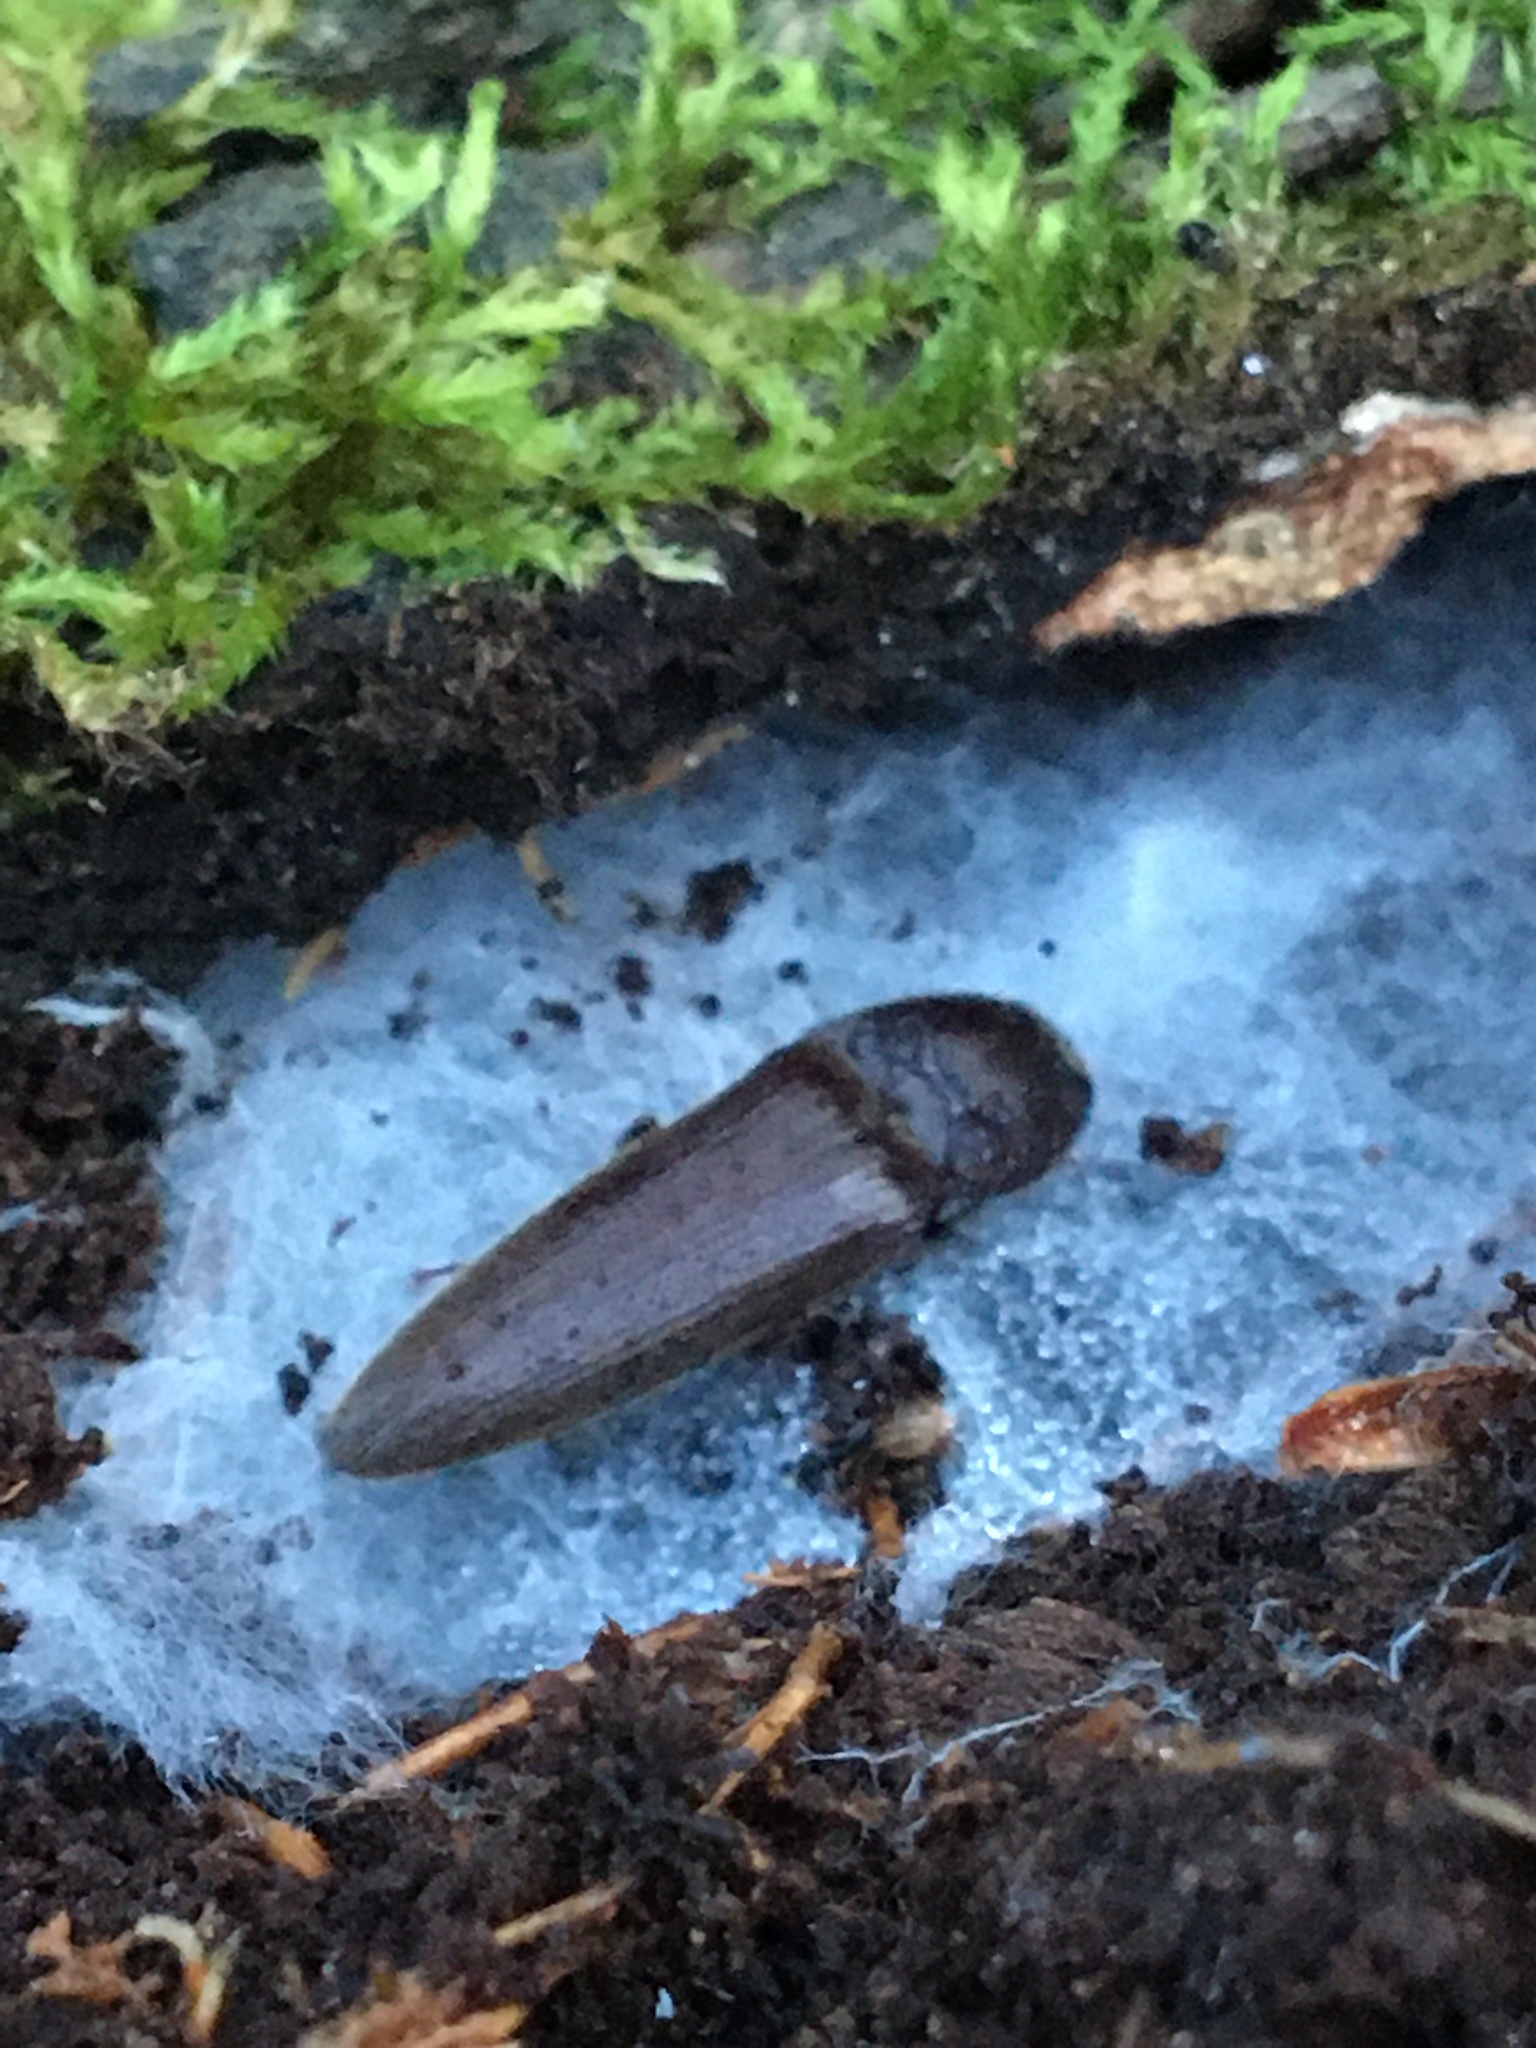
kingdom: Animalia
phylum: Arthropoda
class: Insecta
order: Coleoptera
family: Elateridae
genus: Melanotus
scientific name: Melanotus
